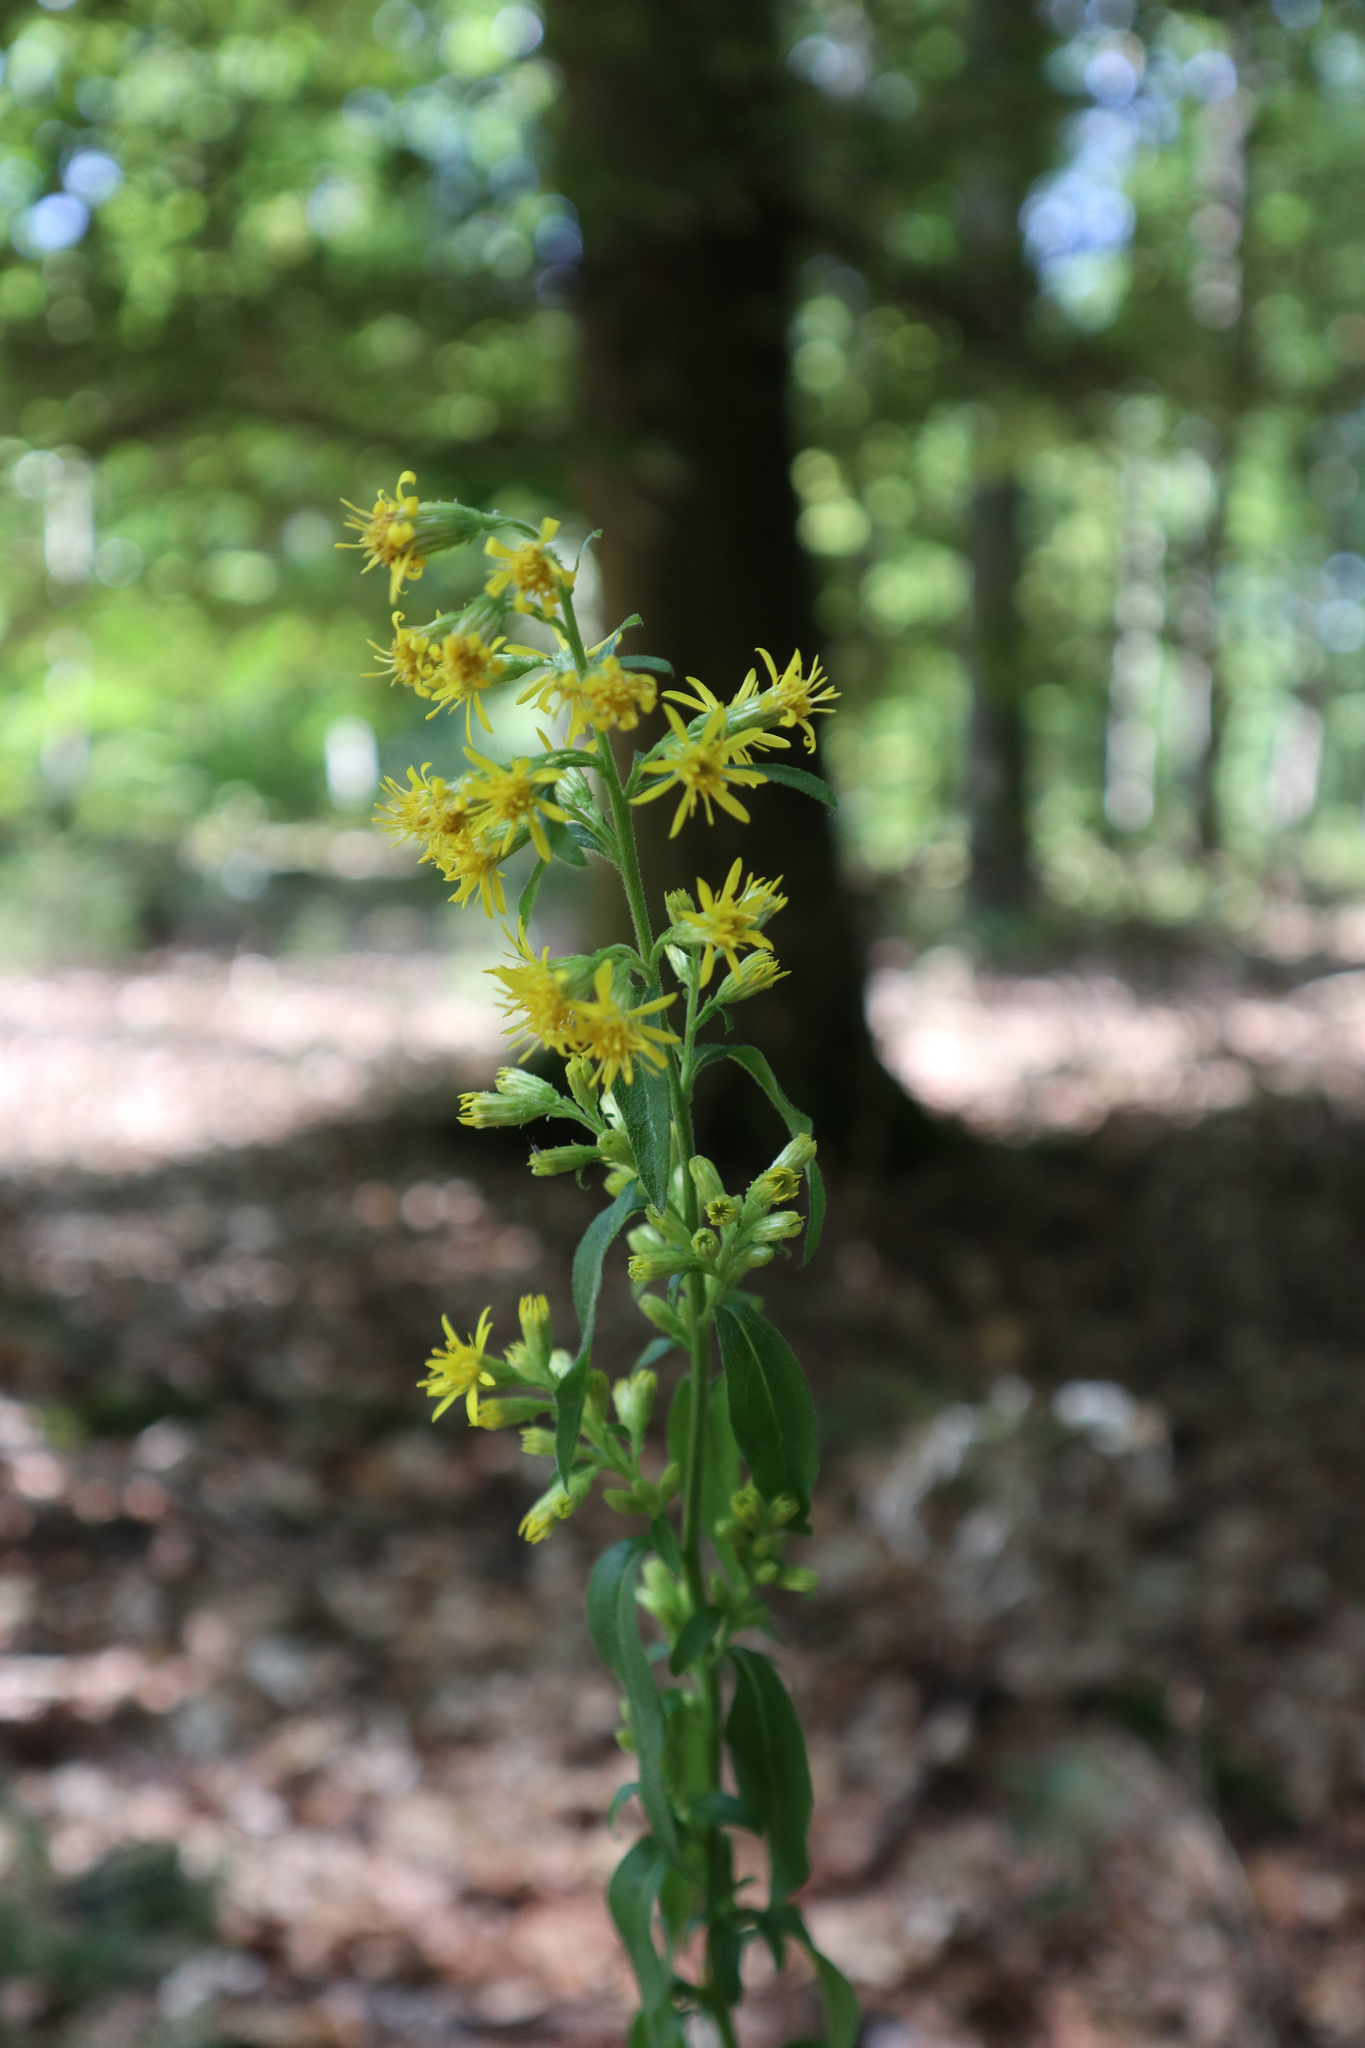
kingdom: Plantae
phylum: Tracheophyta
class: Magnoliopsida
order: Asterales
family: Asteraceae
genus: Solidago
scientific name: Solidago virgaurea
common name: Goldenrod
